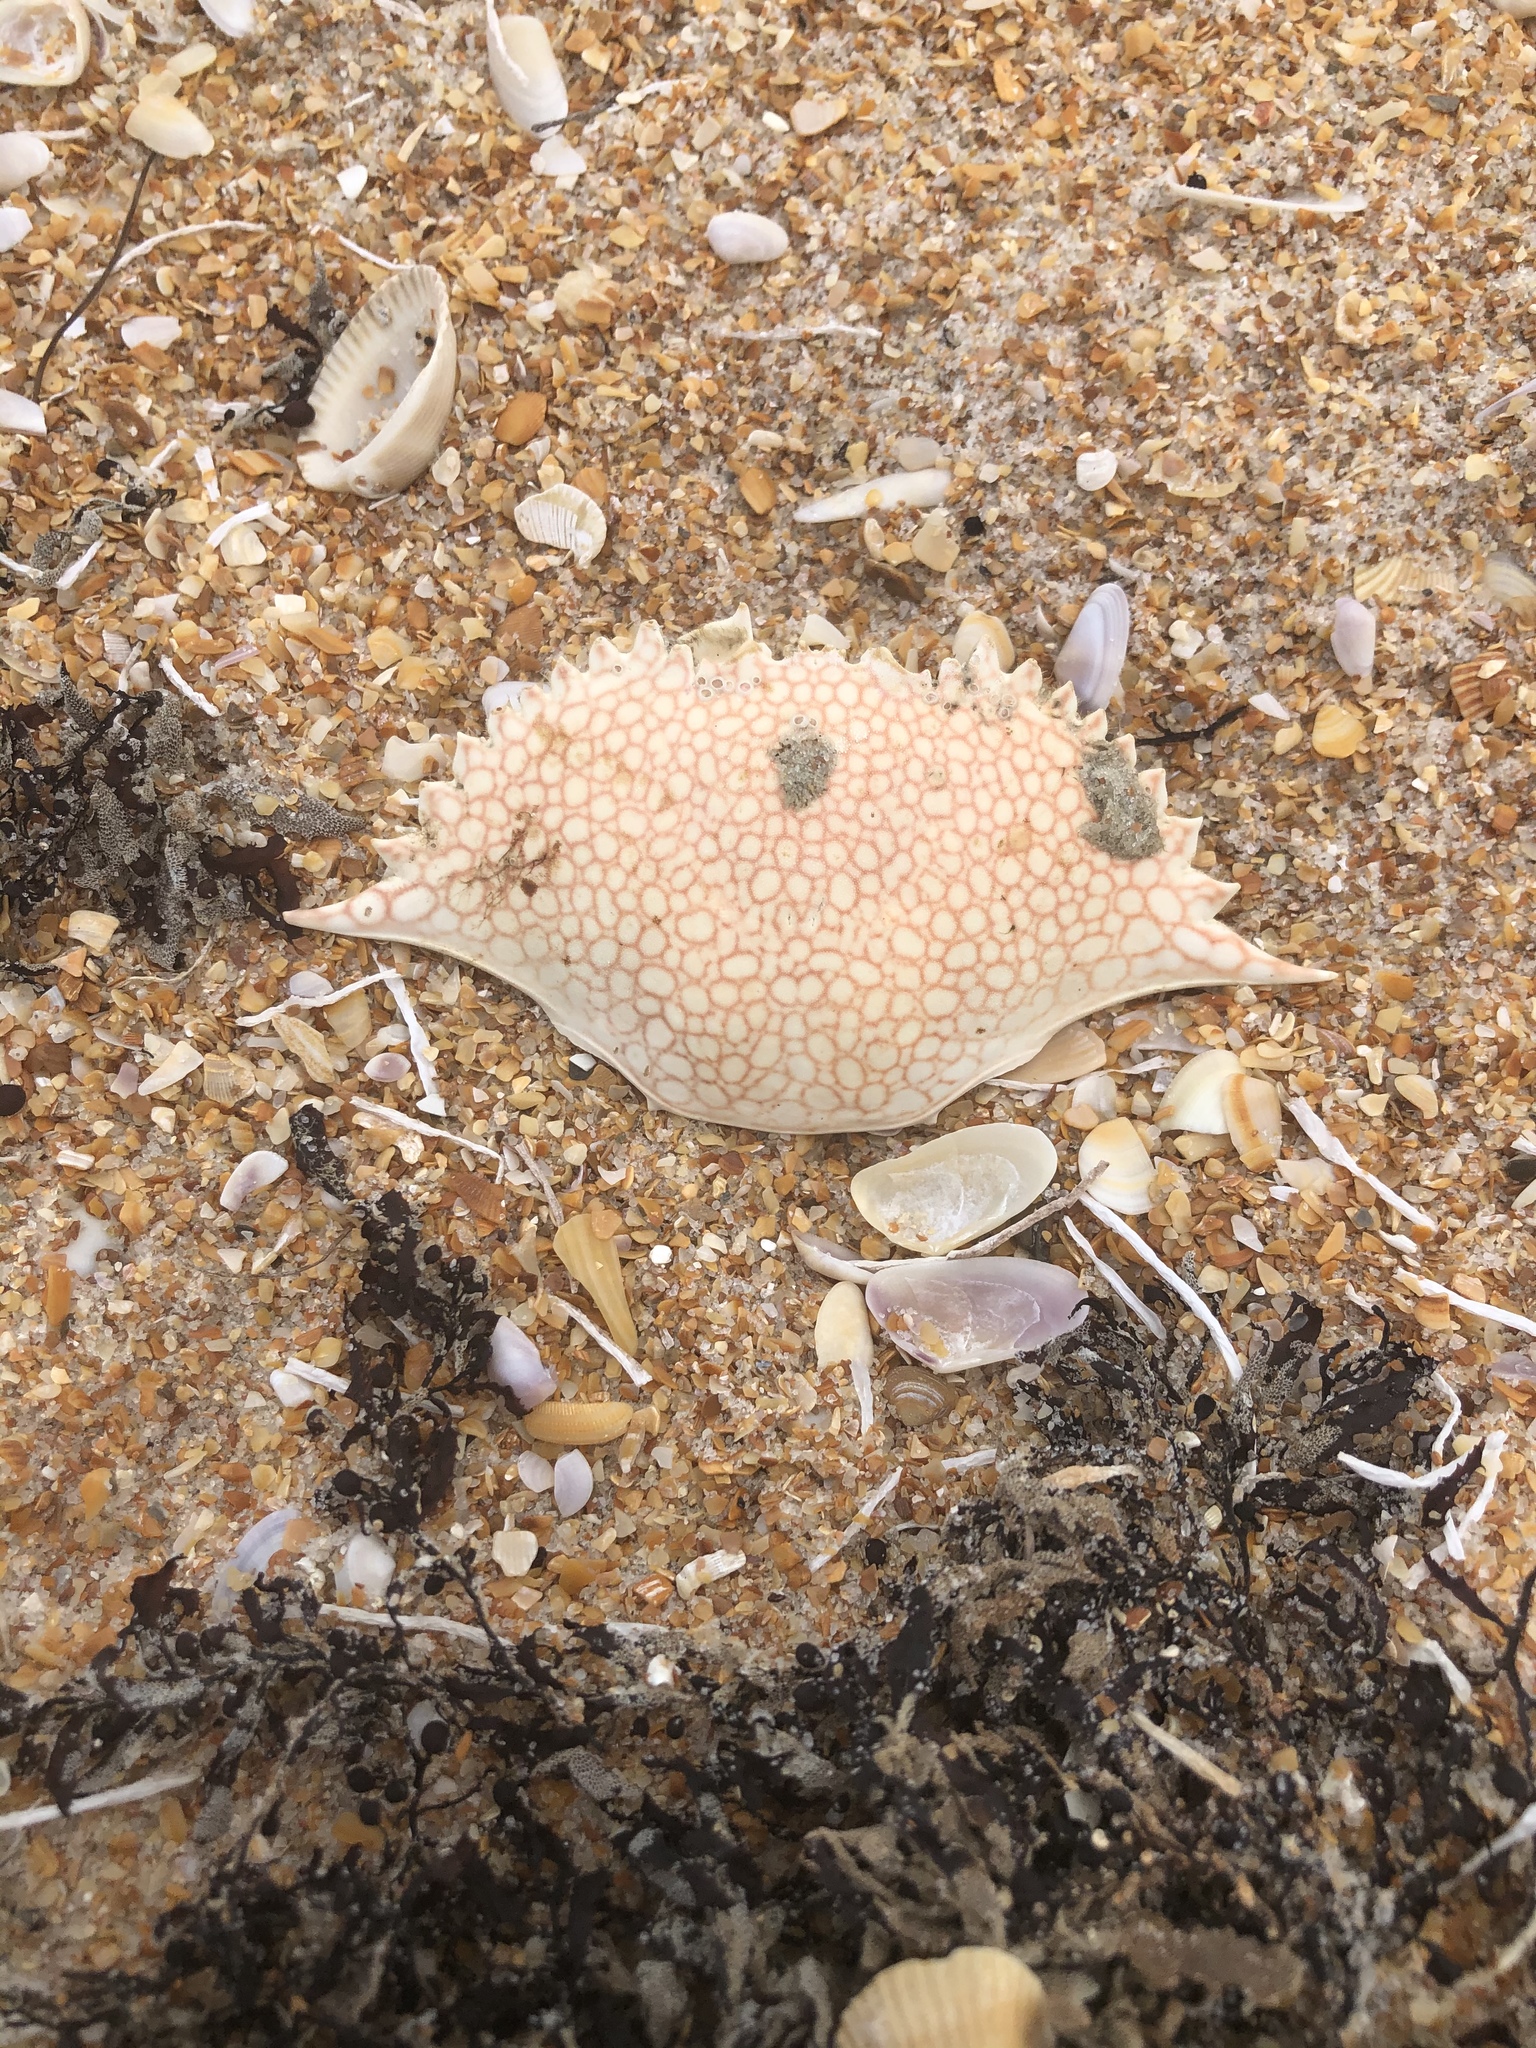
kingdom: Animalia
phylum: Arthropoda
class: Malacostraca
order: Decapoda
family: Portunidae
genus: Arenaeus
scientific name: Arenaeus cribrarius
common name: Speckled crab
